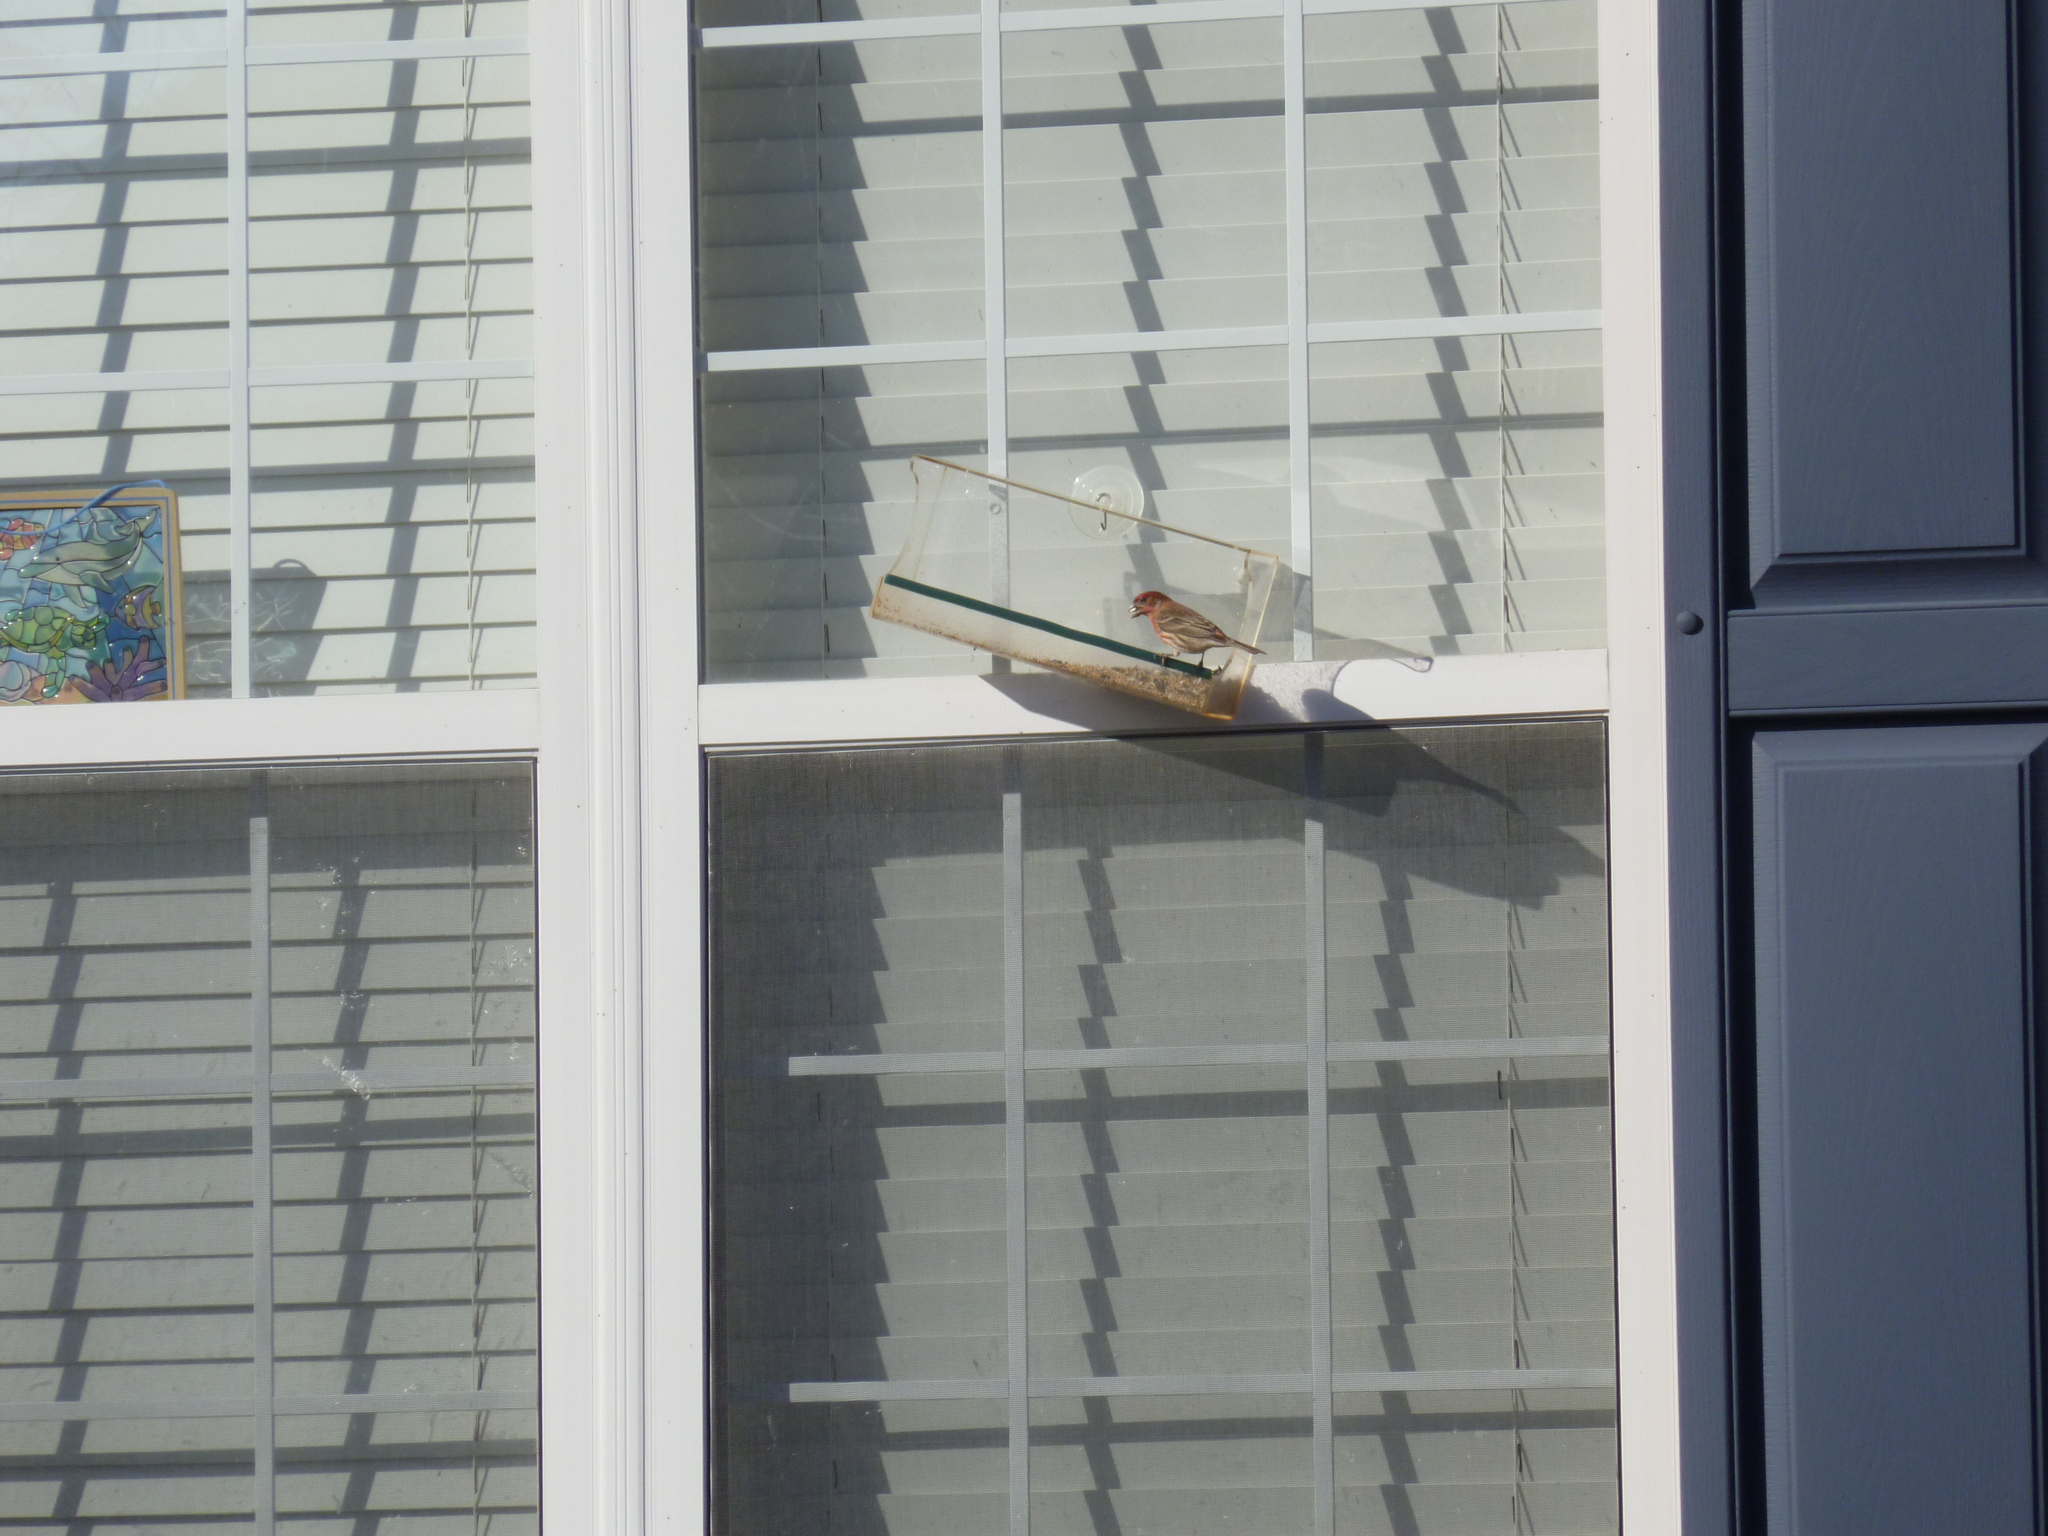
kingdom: Animalia
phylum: Chordata
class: Aves
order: Passeriformes
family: Fringillidae
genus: Haemorhous
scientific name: Haemorhous mexicanus
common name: House finch
